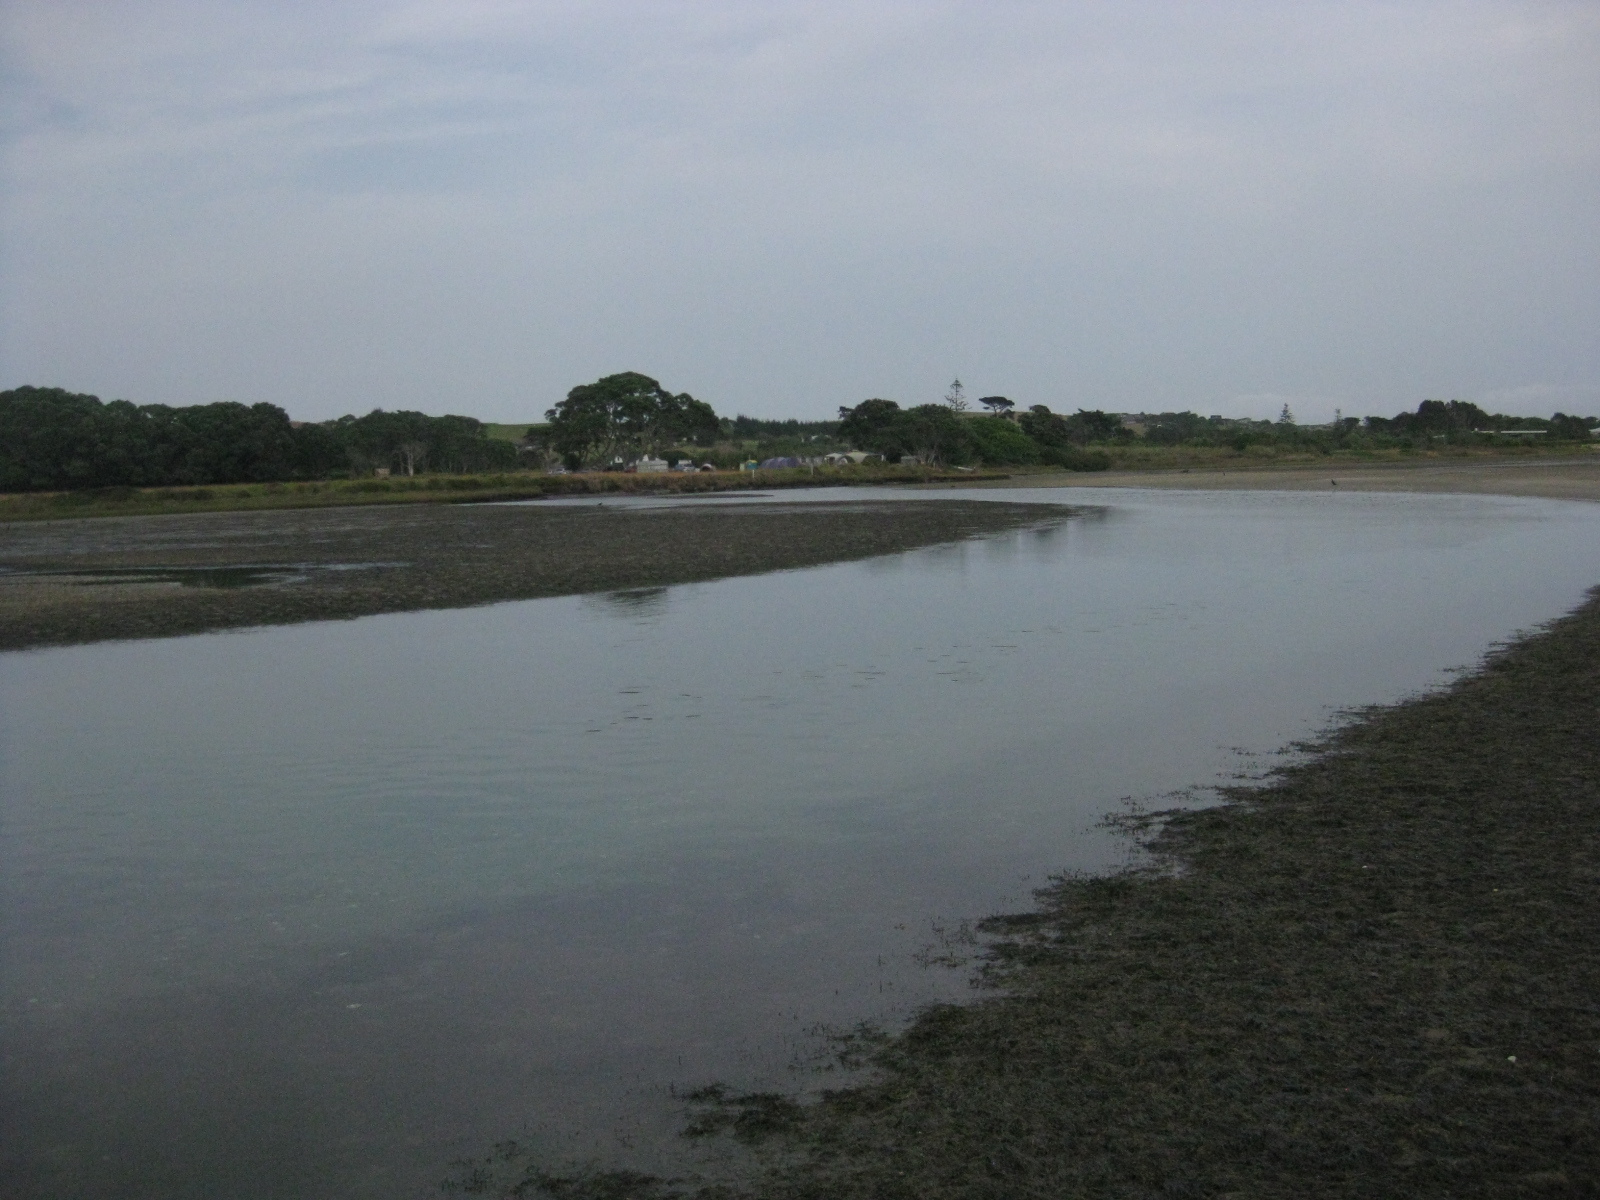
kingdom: Plantae
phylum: Tracheophyta
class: Liliopsida
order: Alismatales
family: Zosteraceae
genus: Zostera
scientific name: Zostera novazelandica
